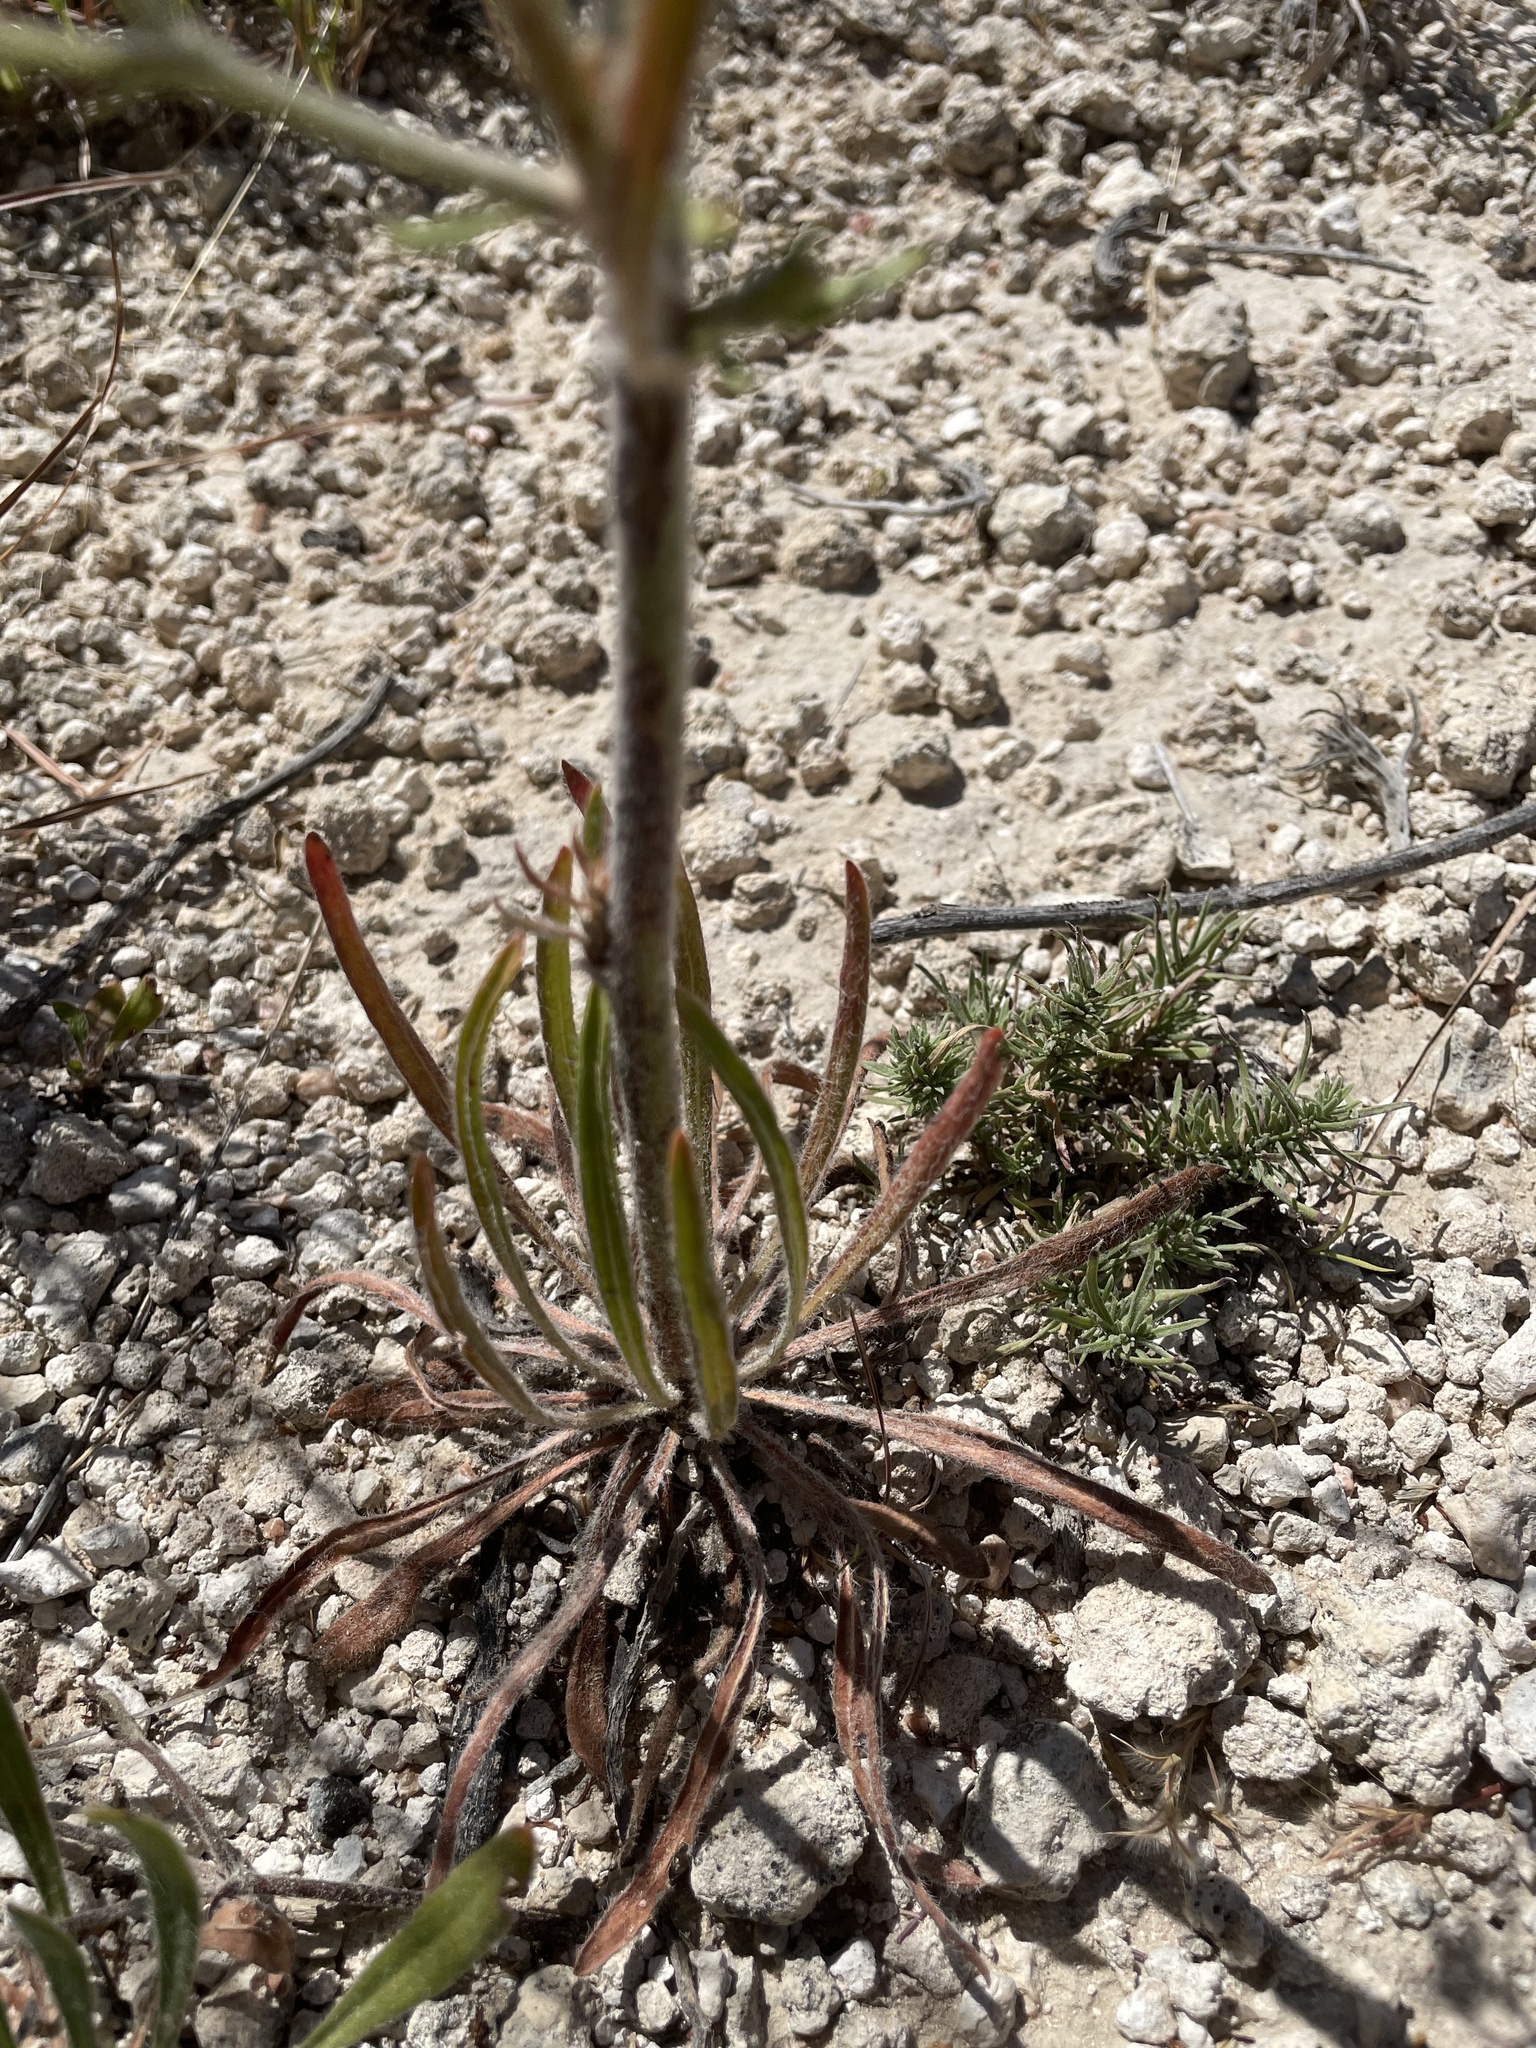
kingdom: Plantae
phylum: Tracheophyta
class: Magnoliopsida
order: Caryophyllales
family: Polygonaceae
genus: Eriogonum
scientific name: Eriogonum alatum
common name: Winged eriogonum
